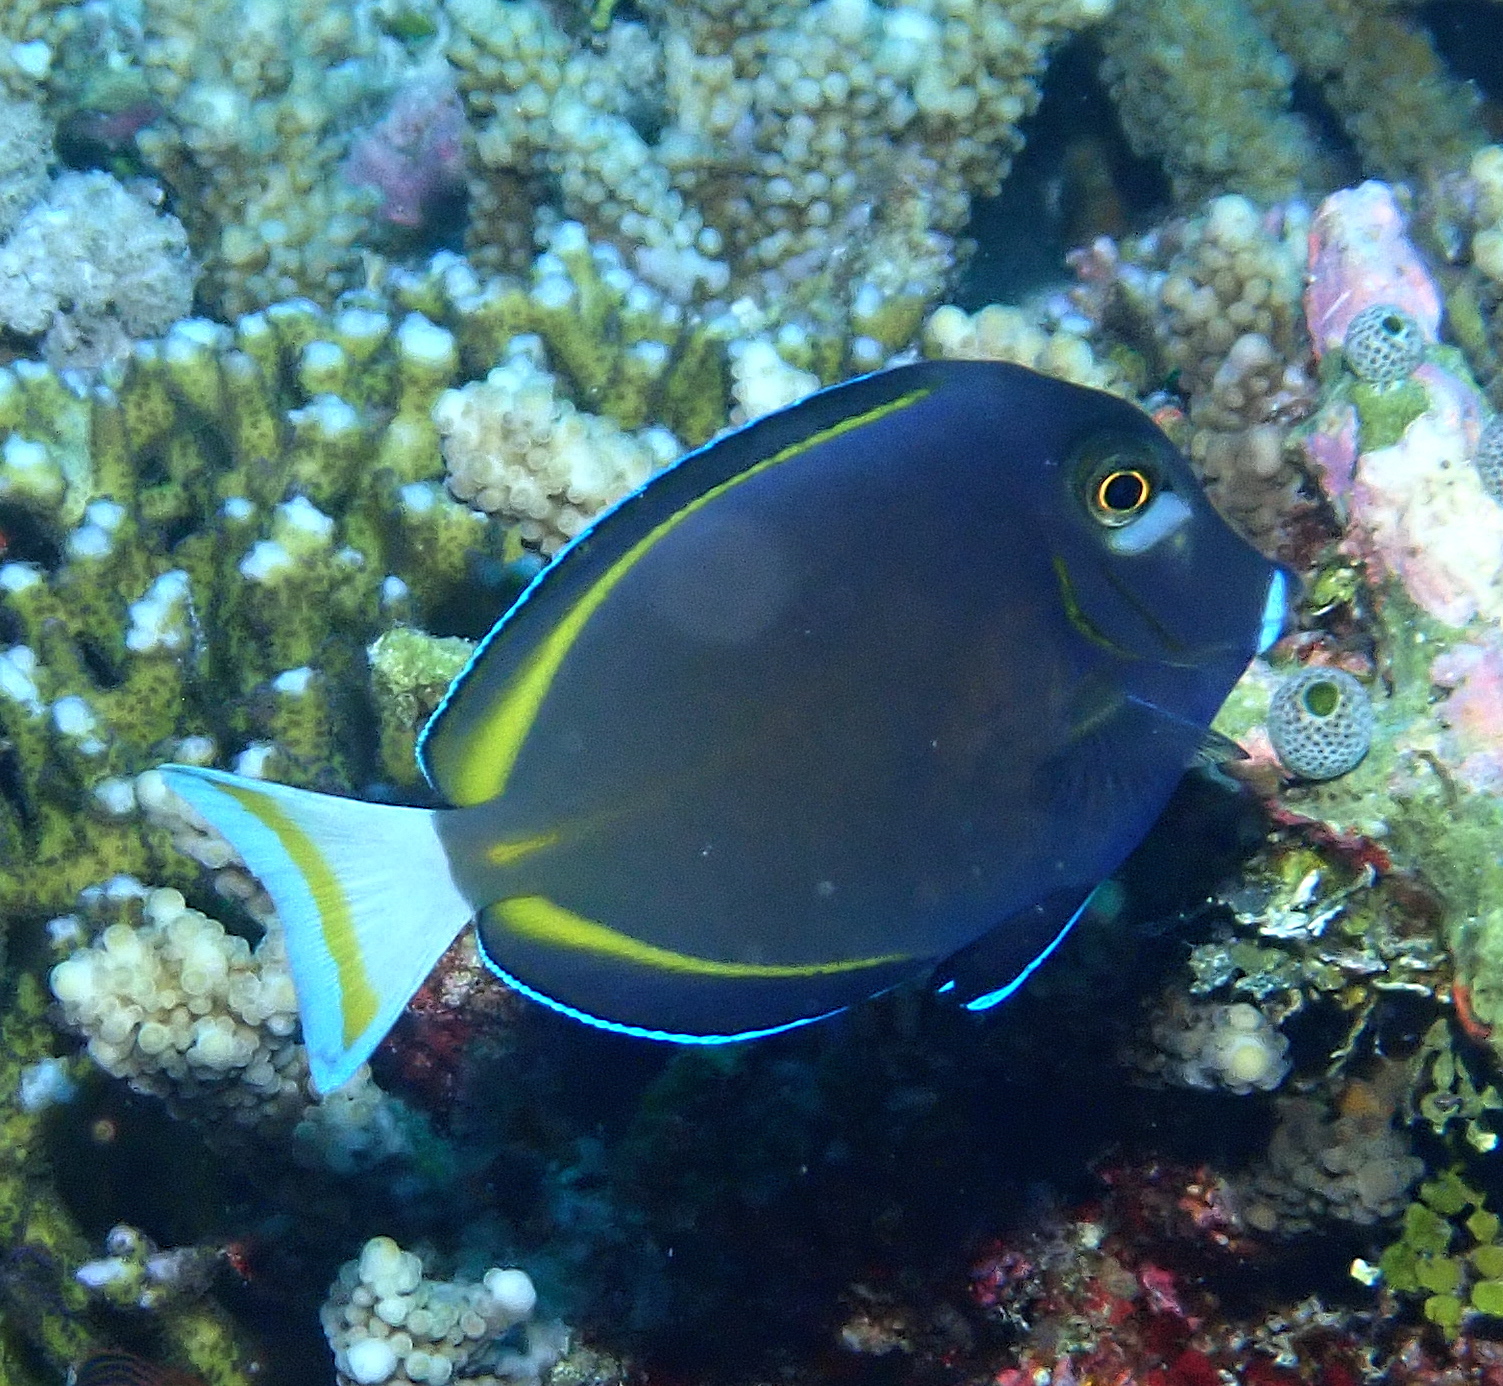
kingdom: Animalia
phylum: Chordata
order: Perciformes
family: Acanthuridae
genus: Acanthurus
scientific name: Acanthurus nigricans
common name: Whitecheek surgeonfish
